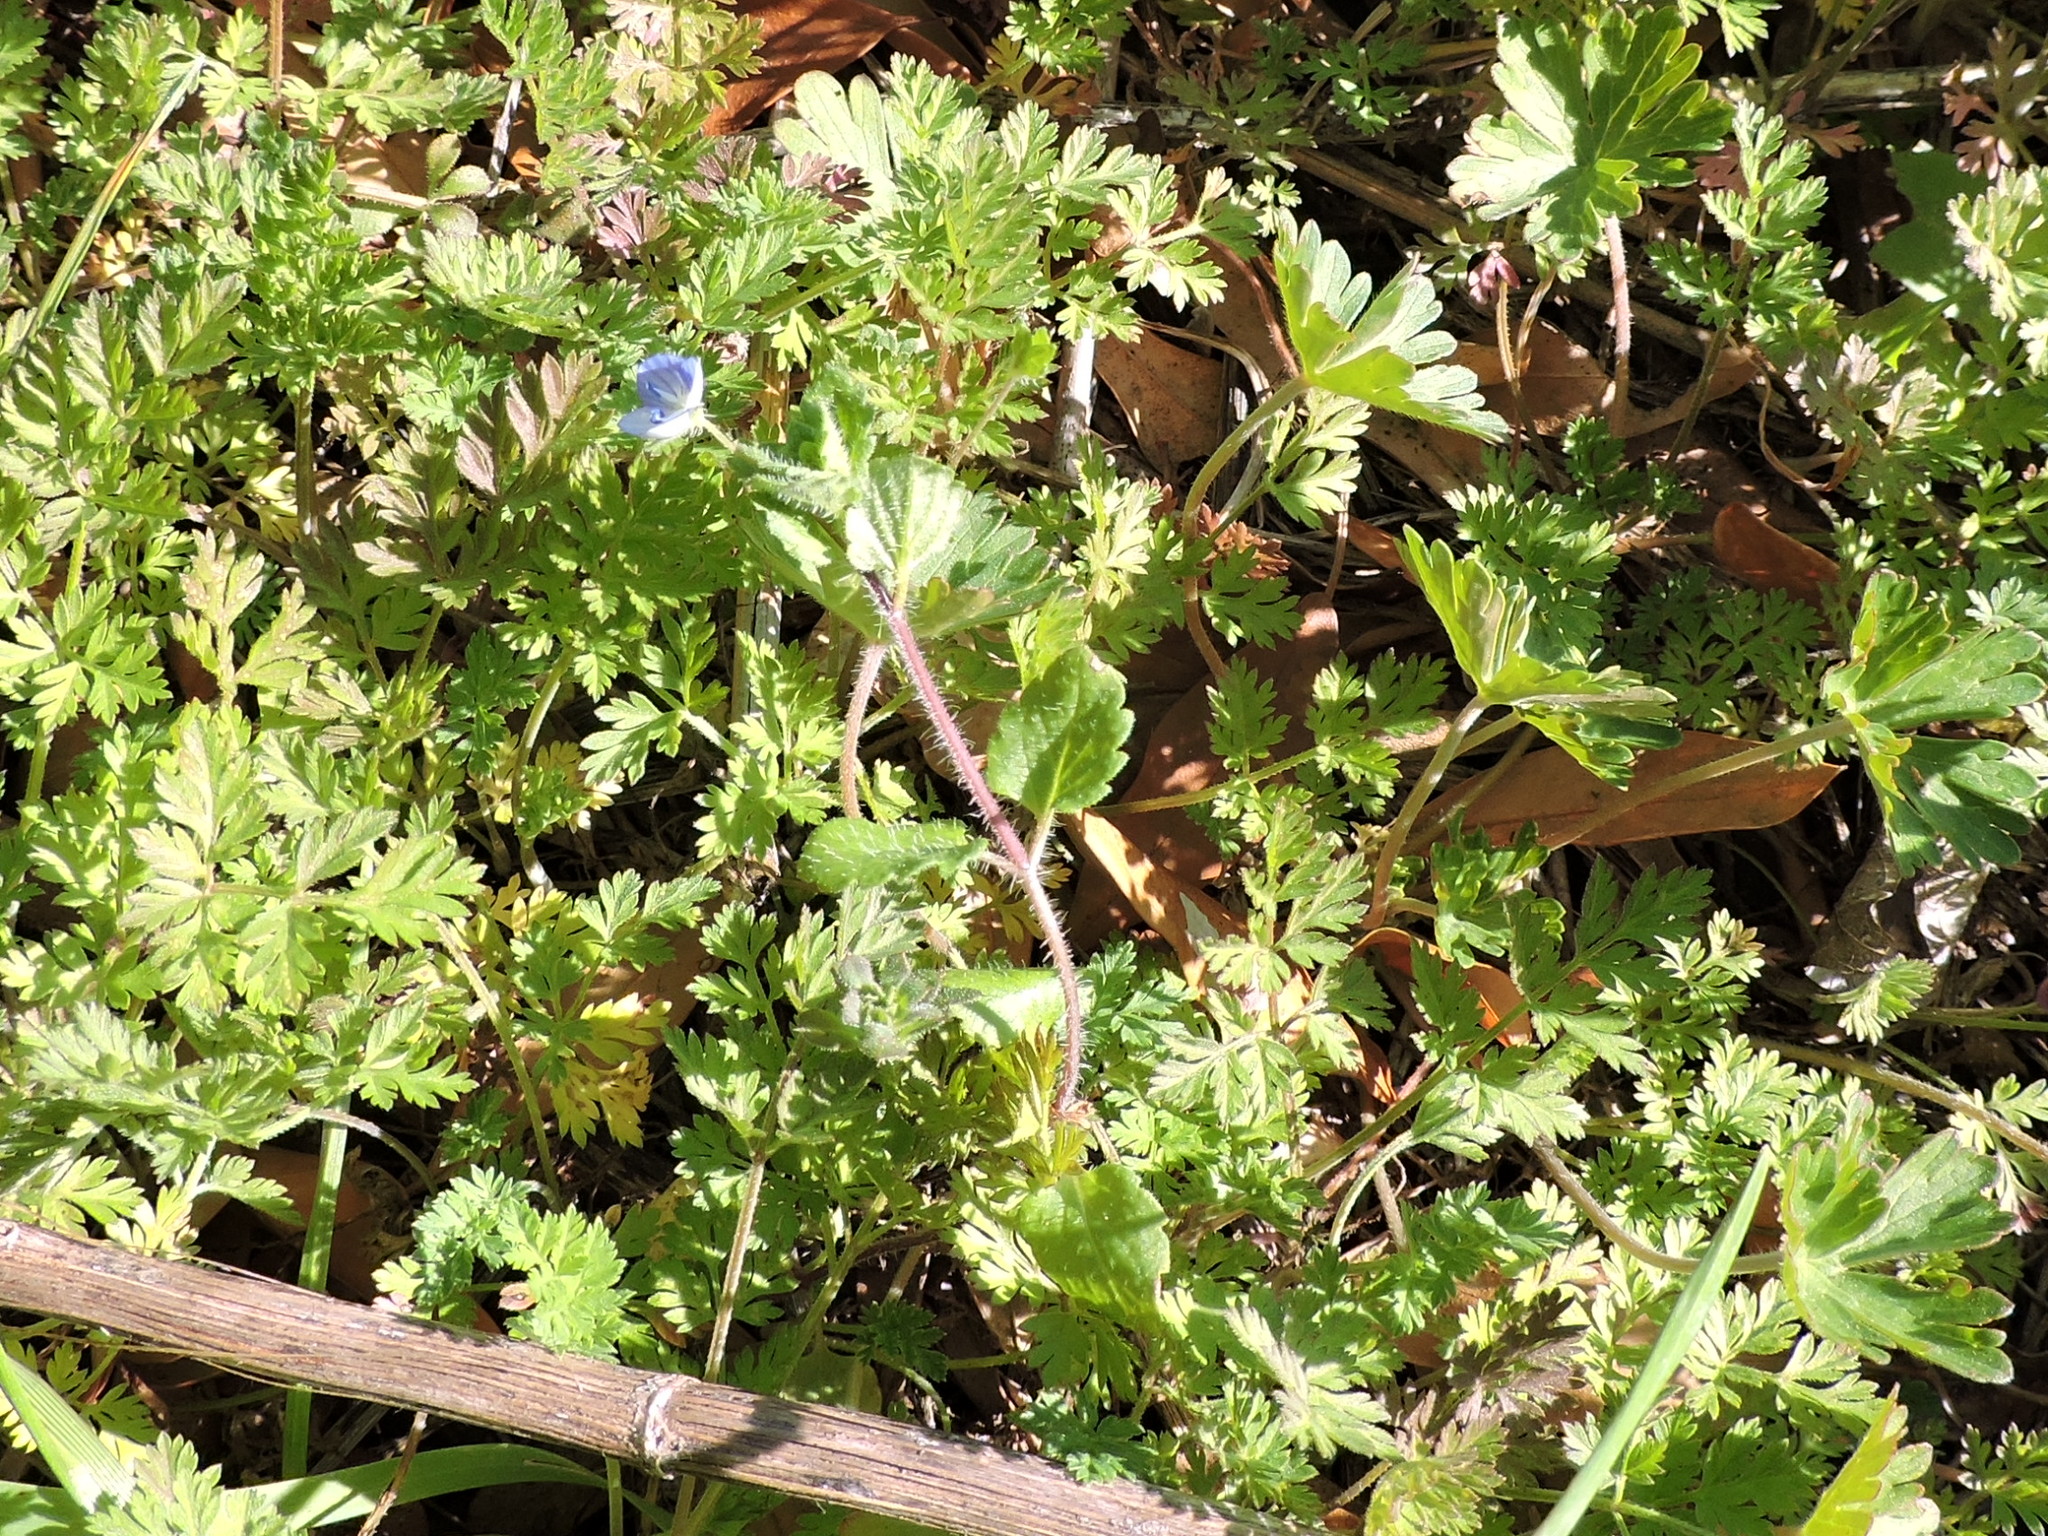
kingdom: Plantae
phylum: Tracheophyta
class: Magnoliopsida
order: Lamiales
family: Plantaginaceae
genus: Veronica
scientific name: Veronica persica
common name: Common field-speedwell
